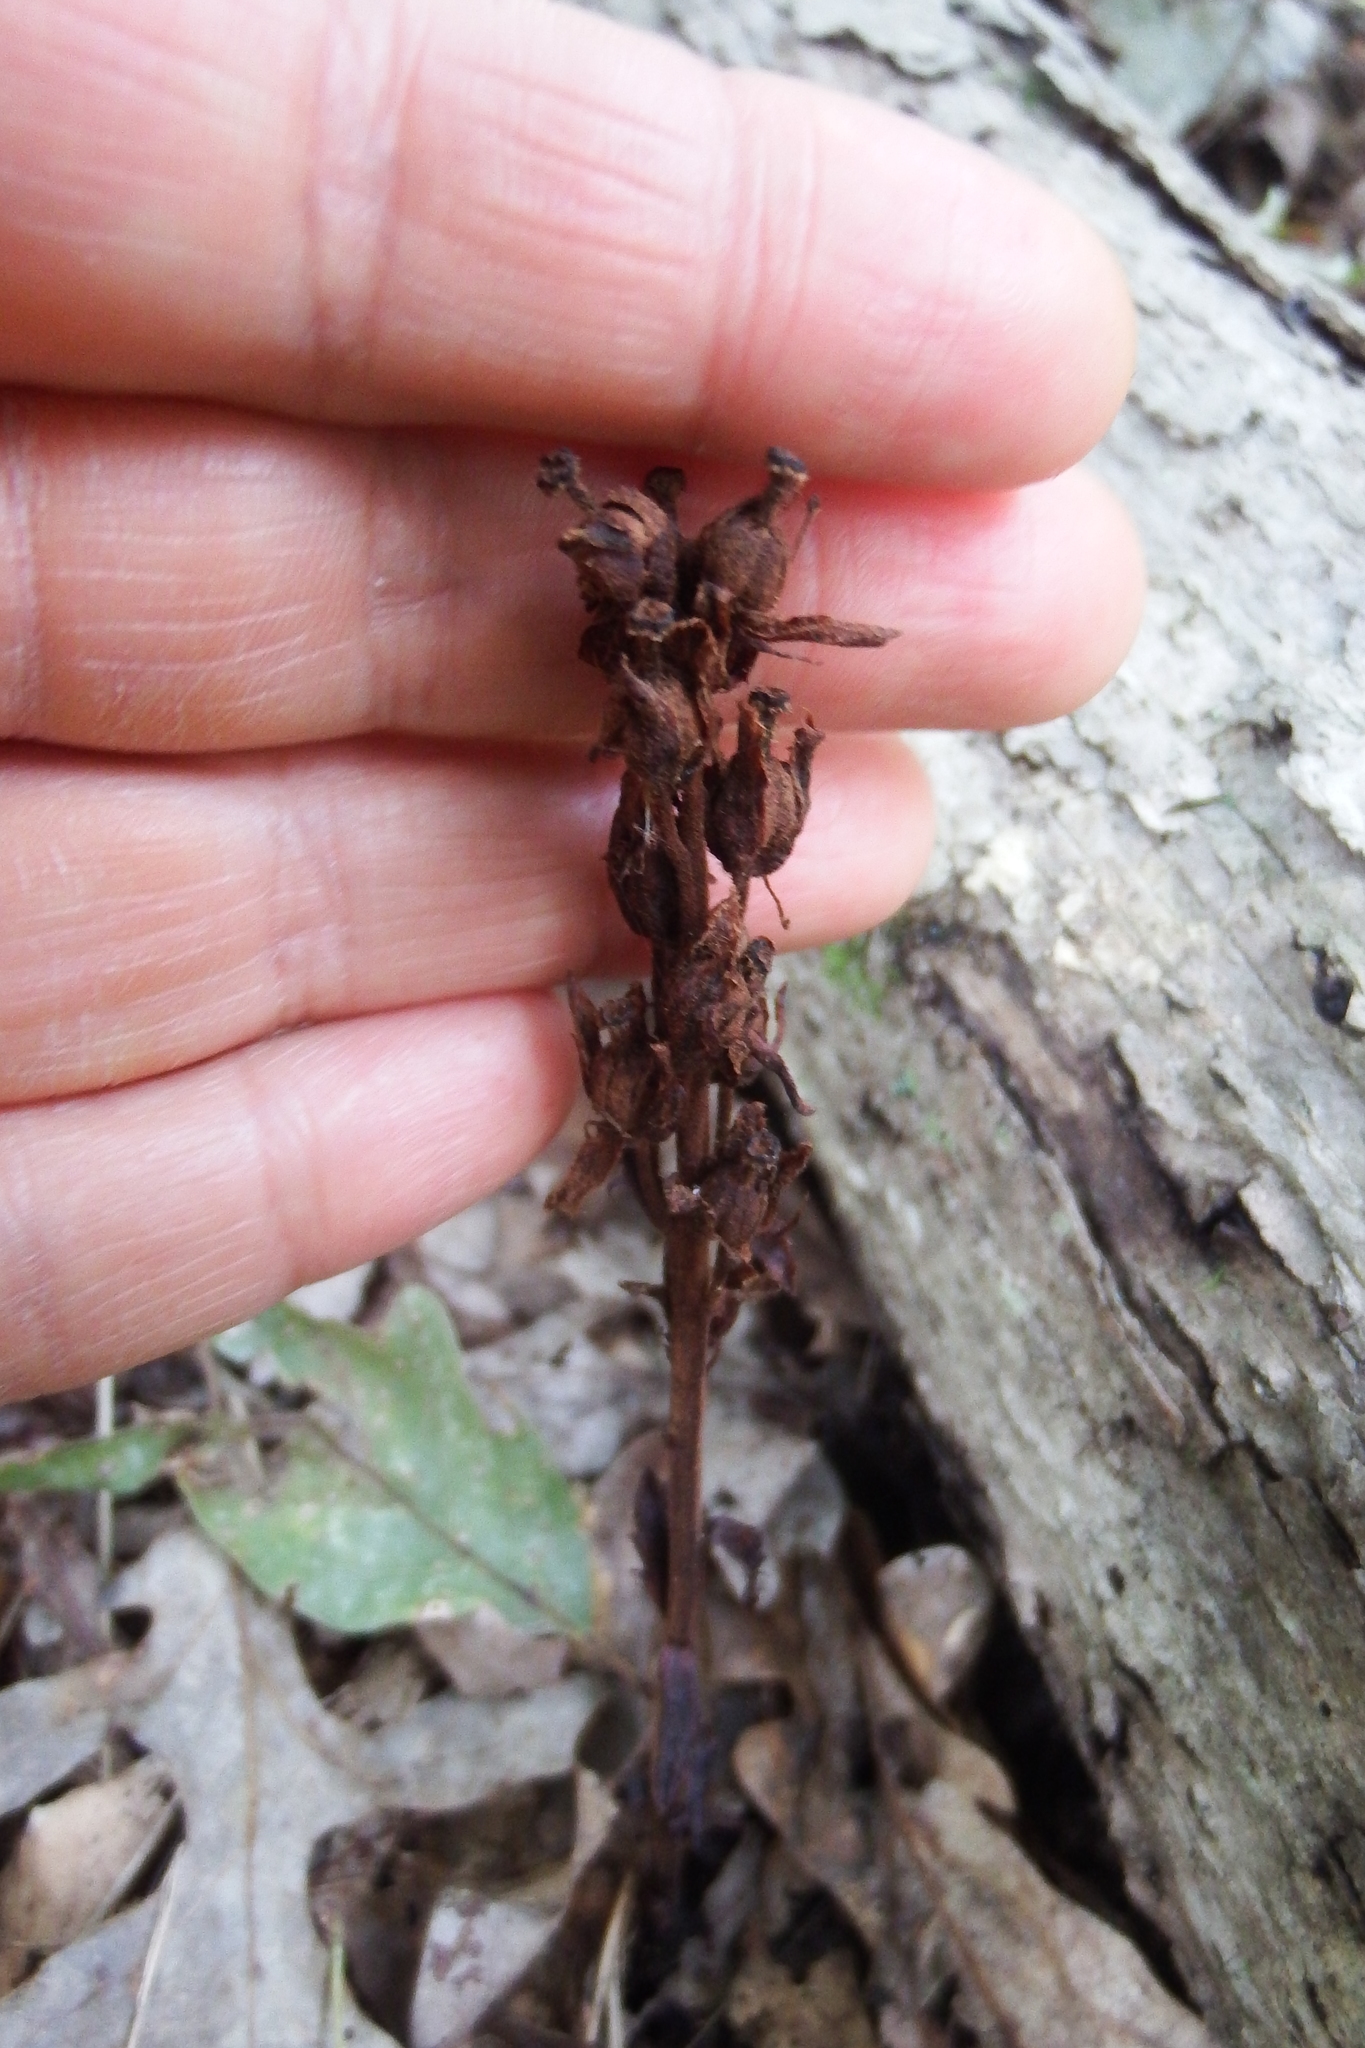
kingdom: Plantae
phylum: Tracheophyta
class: Magnoliopsida
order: Ericales
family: Ericaceae
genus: Hypopitys
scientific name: Hypopitys monotropa
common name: Yellow bird's-nest
